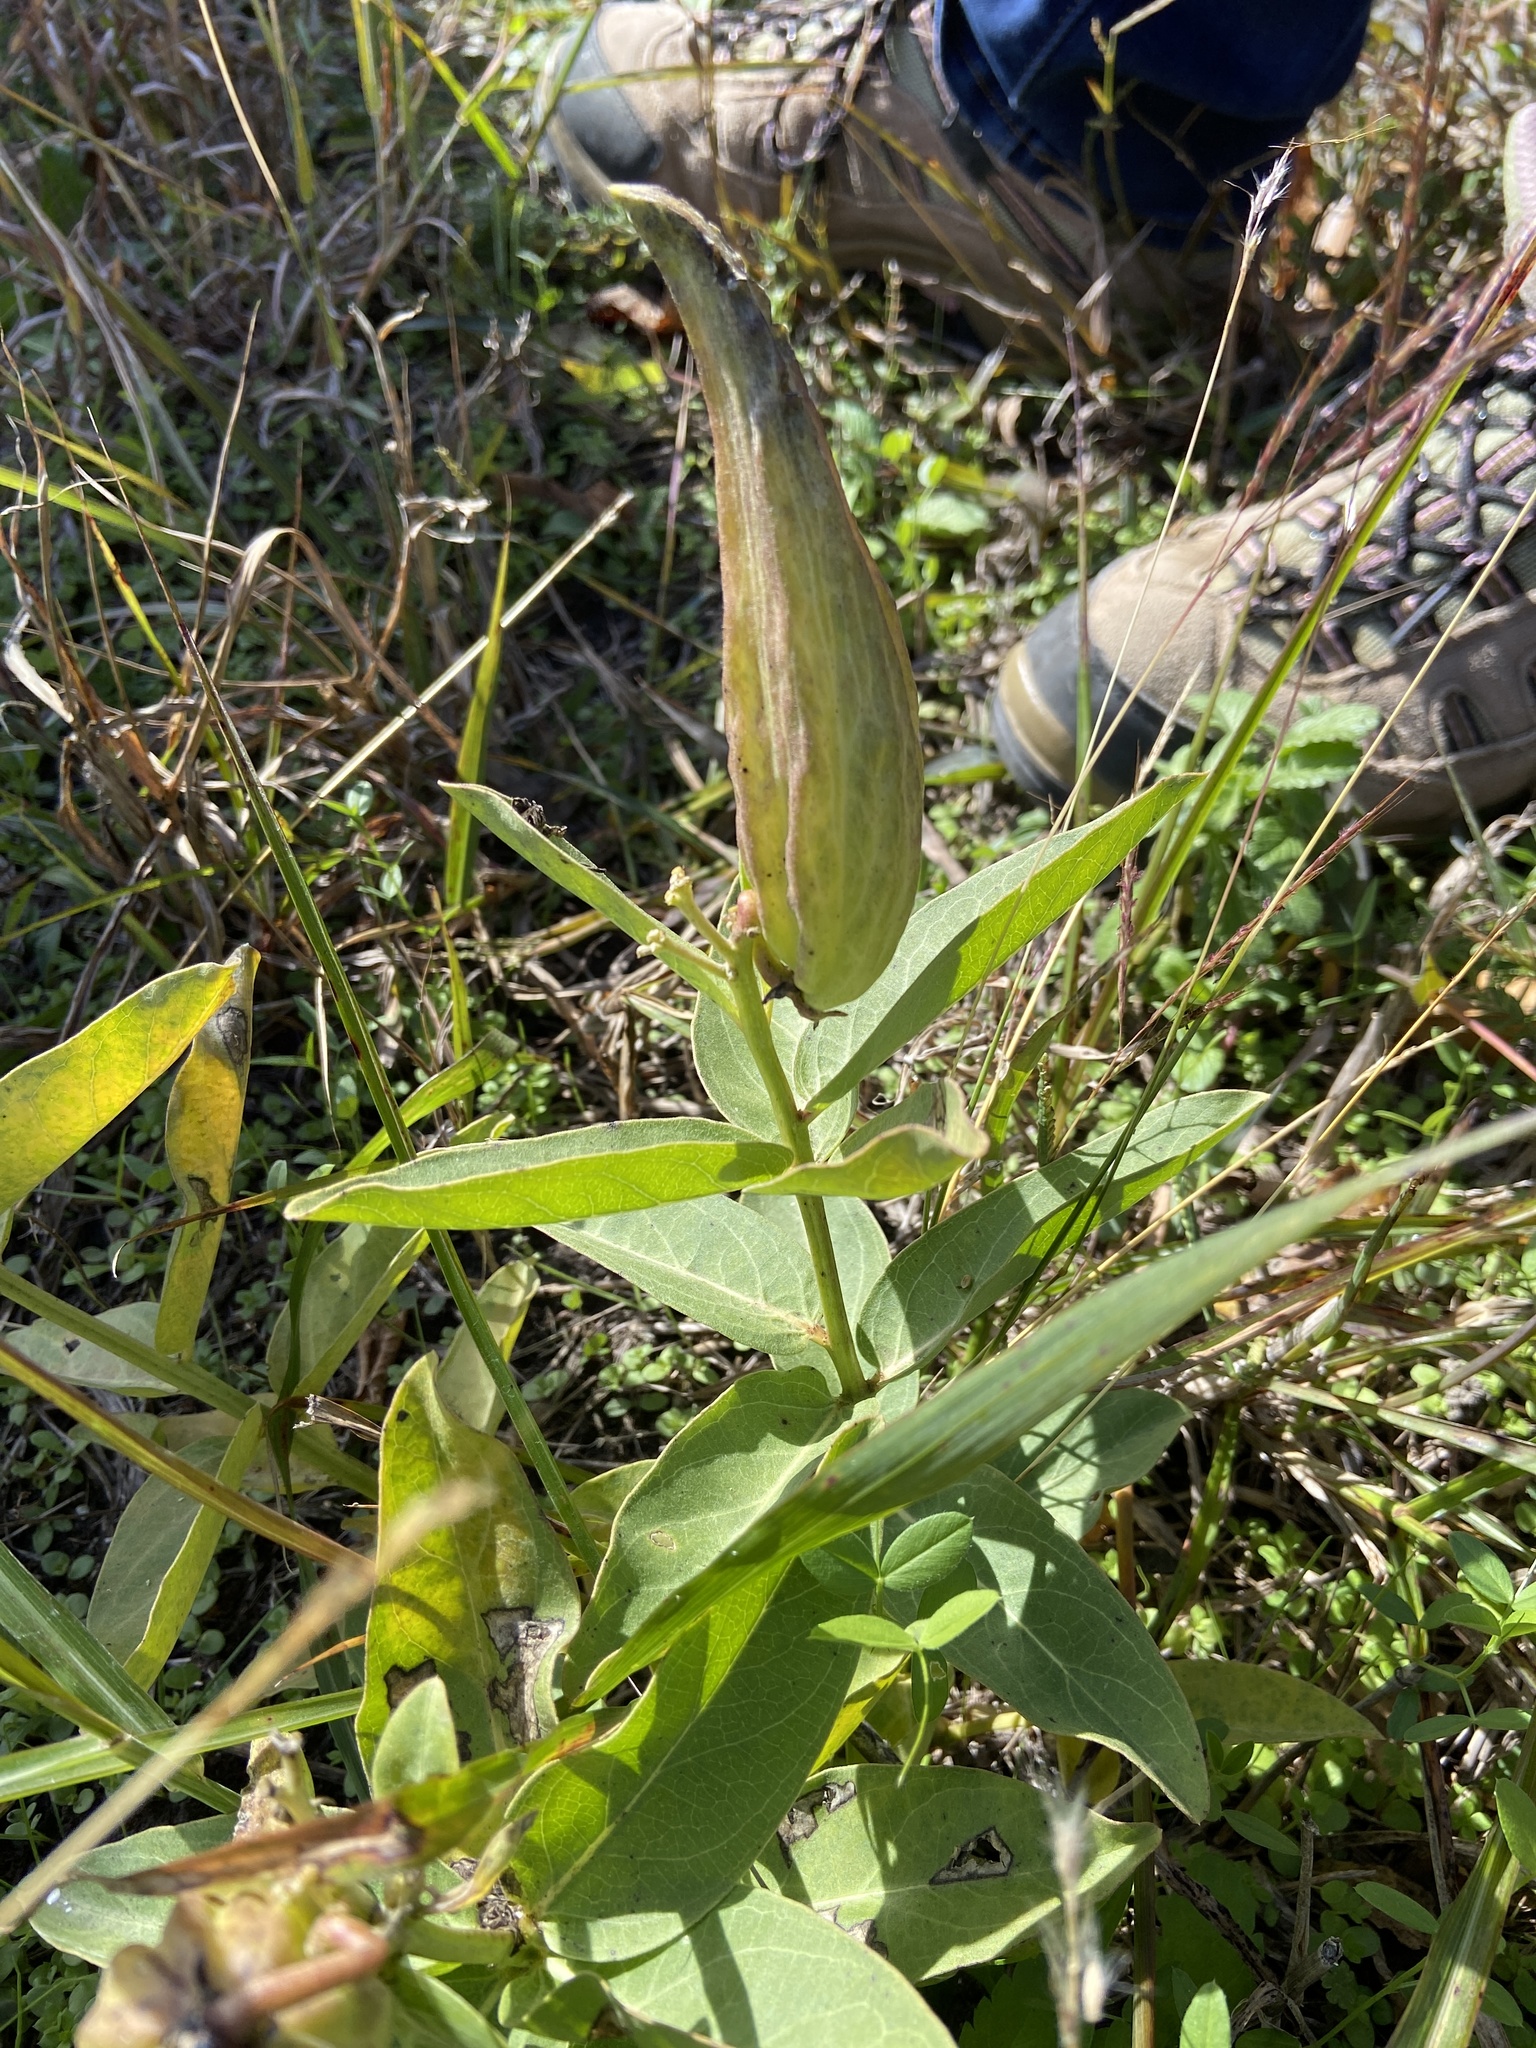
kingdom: Plantae
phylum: Tracheophyta
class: Magnoliopsida
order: Gentianales
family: Apocynaceae
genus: Asclepias
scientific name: Asclepias viridis
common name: Antelope-horns
